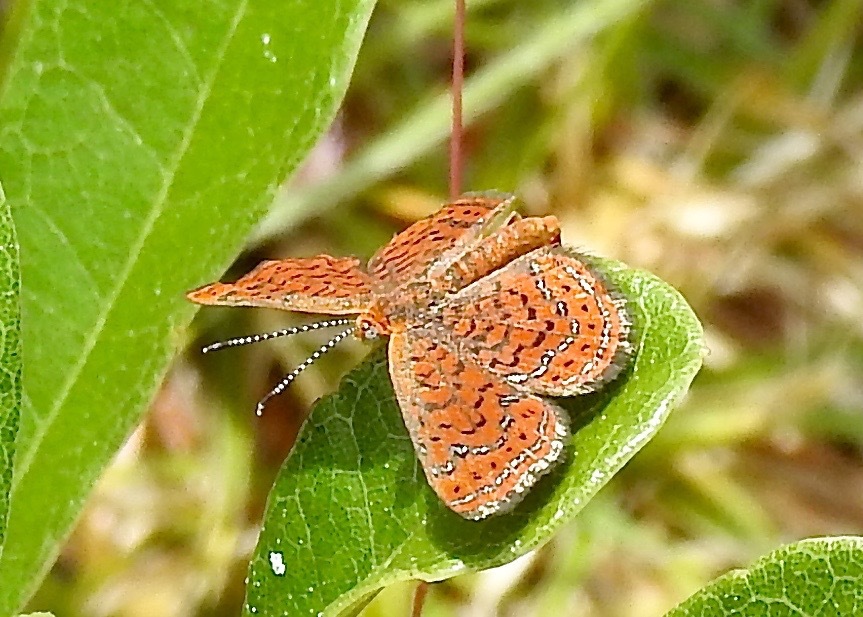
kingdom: Animalia
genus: Calephelis
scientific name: Calephelis virginiensis
